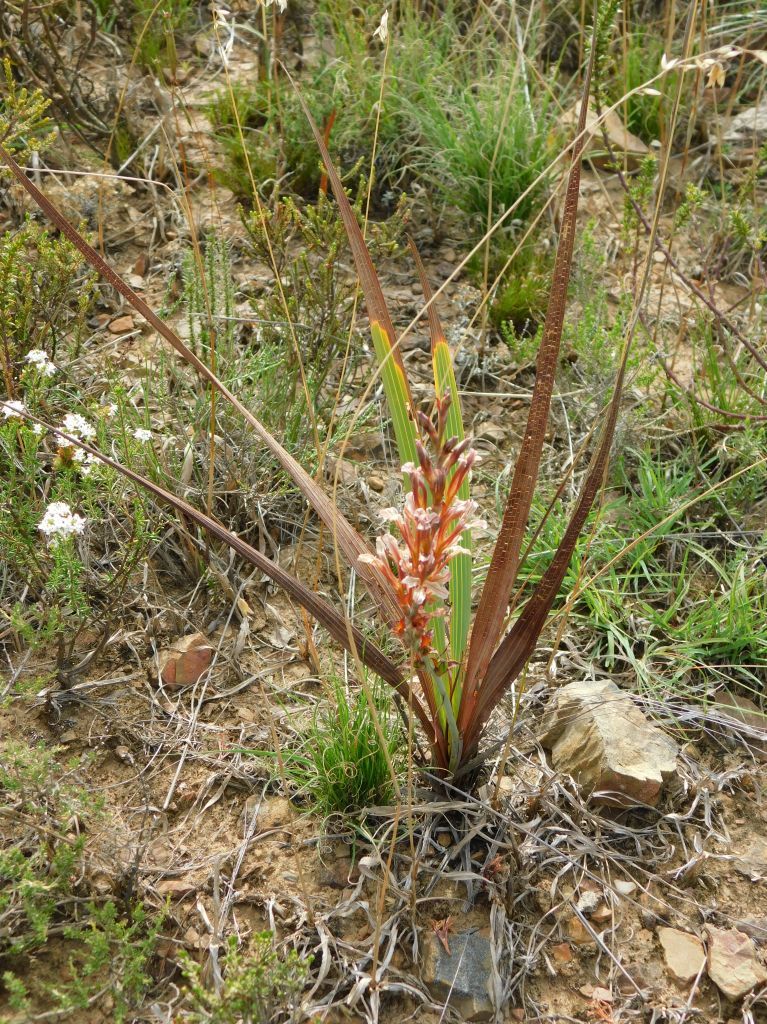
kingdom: Plantae
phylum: Tracheophyta
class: Liliopsida
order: Asparagales
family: Iridaceae
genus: Tritoniopsis
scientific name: Tritoniopsis elongata
